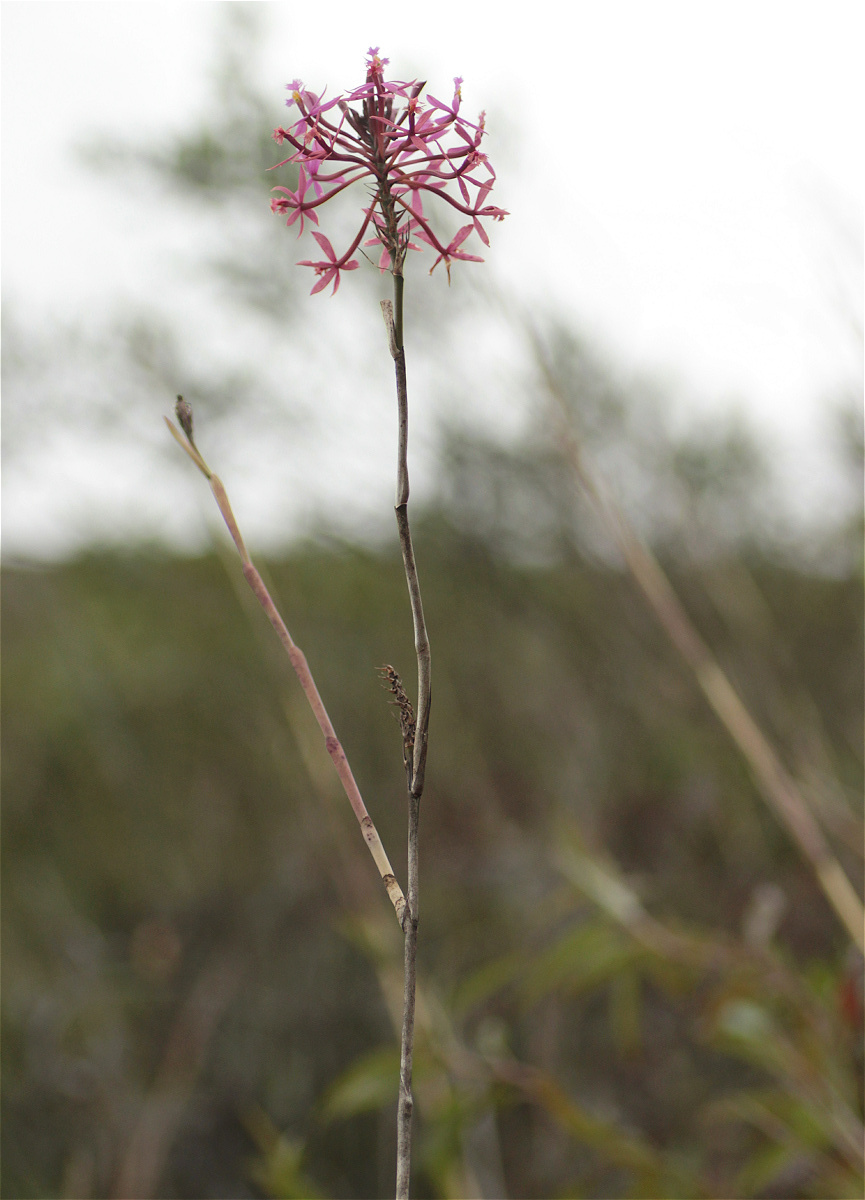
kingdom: Plantae
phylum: Tracheophyta
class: Liliopsida
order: Asparagales
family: Orchidaceae
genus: Epidendrum
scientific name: Epidendrum arachnoglossum
